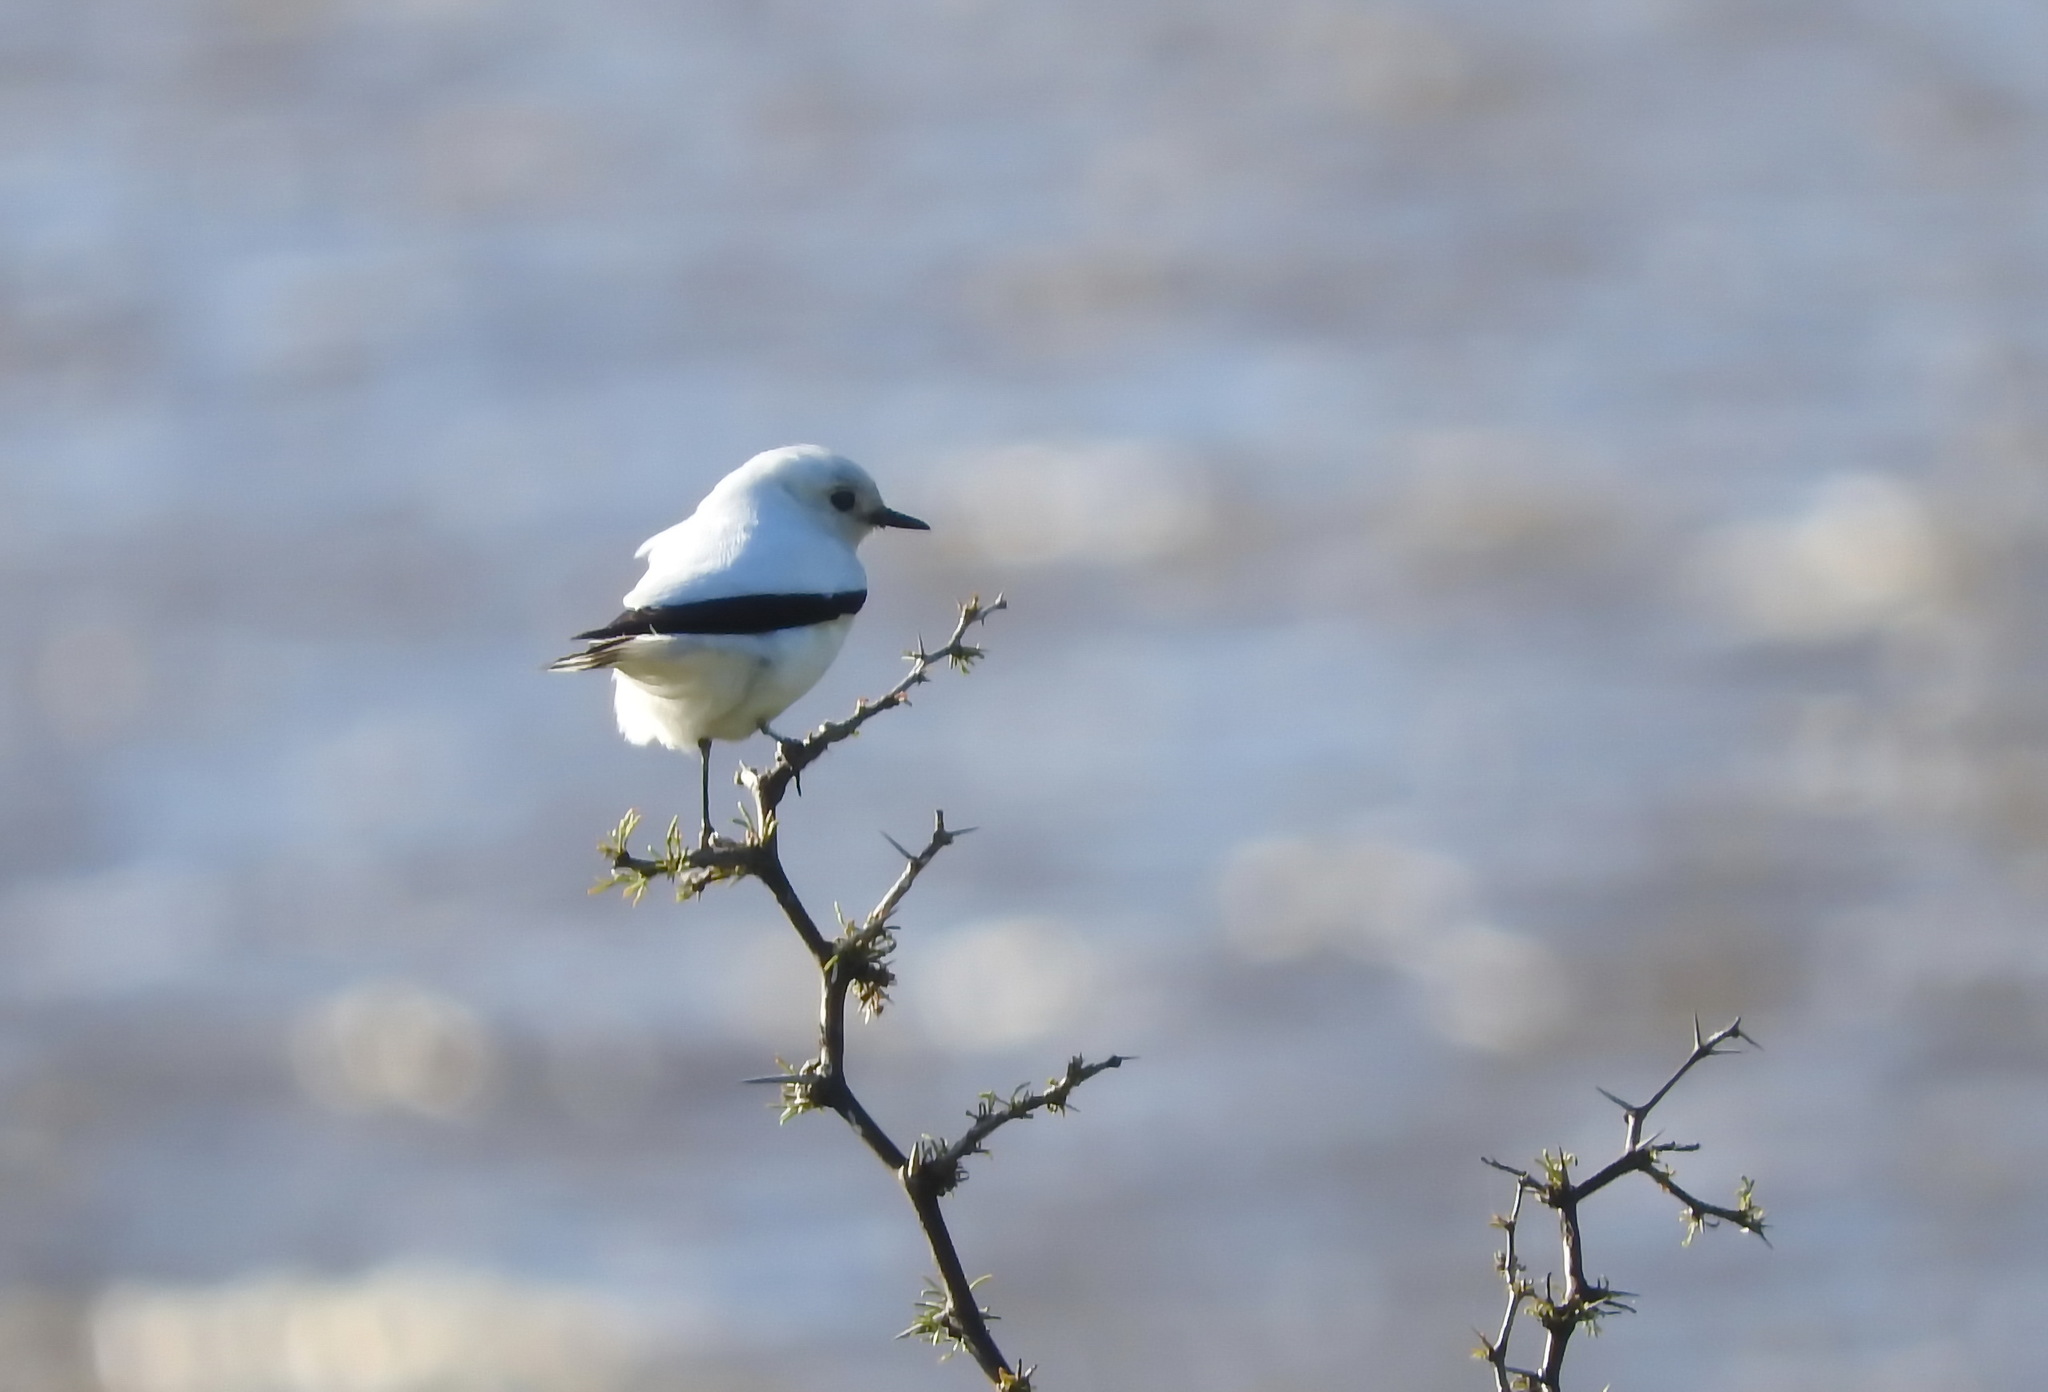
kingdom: Animalia
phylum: Chordata
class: Aves
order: Passeriformes
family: Tyrannidae
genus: Xolmis
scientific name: Xolmis irupero
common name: White monjita
